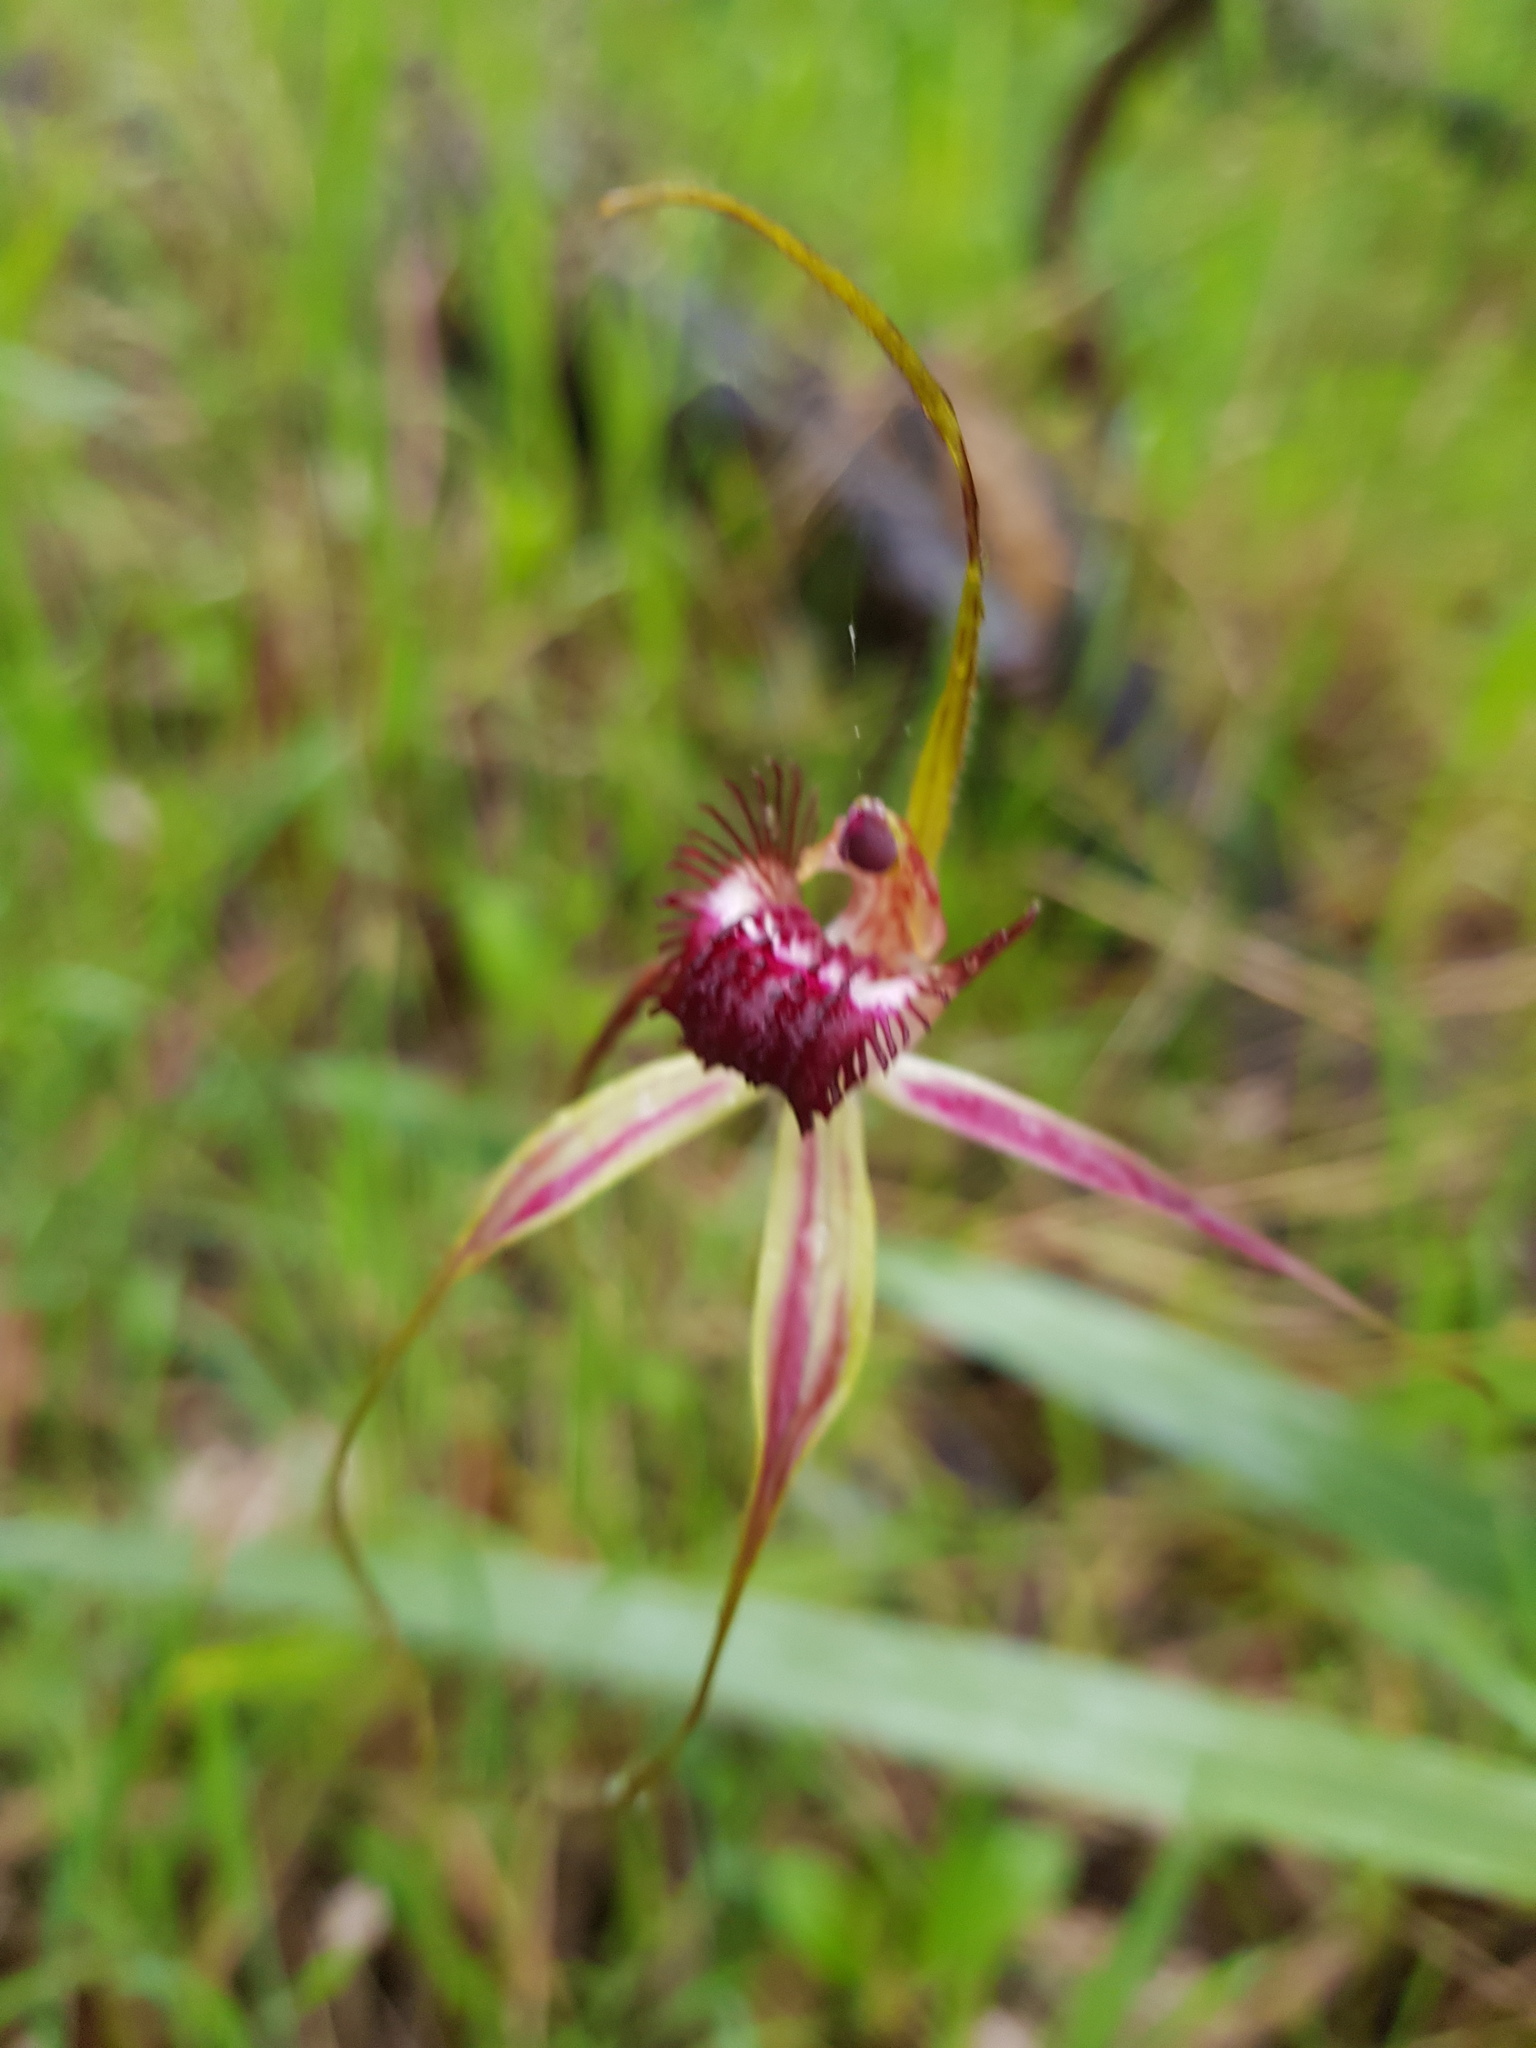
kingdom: Plantae
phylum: Tracheophyta
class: Liliopsida
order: Asparagales
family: Orchidaceae
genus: Caladenia
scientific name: Caladenia arenicola
